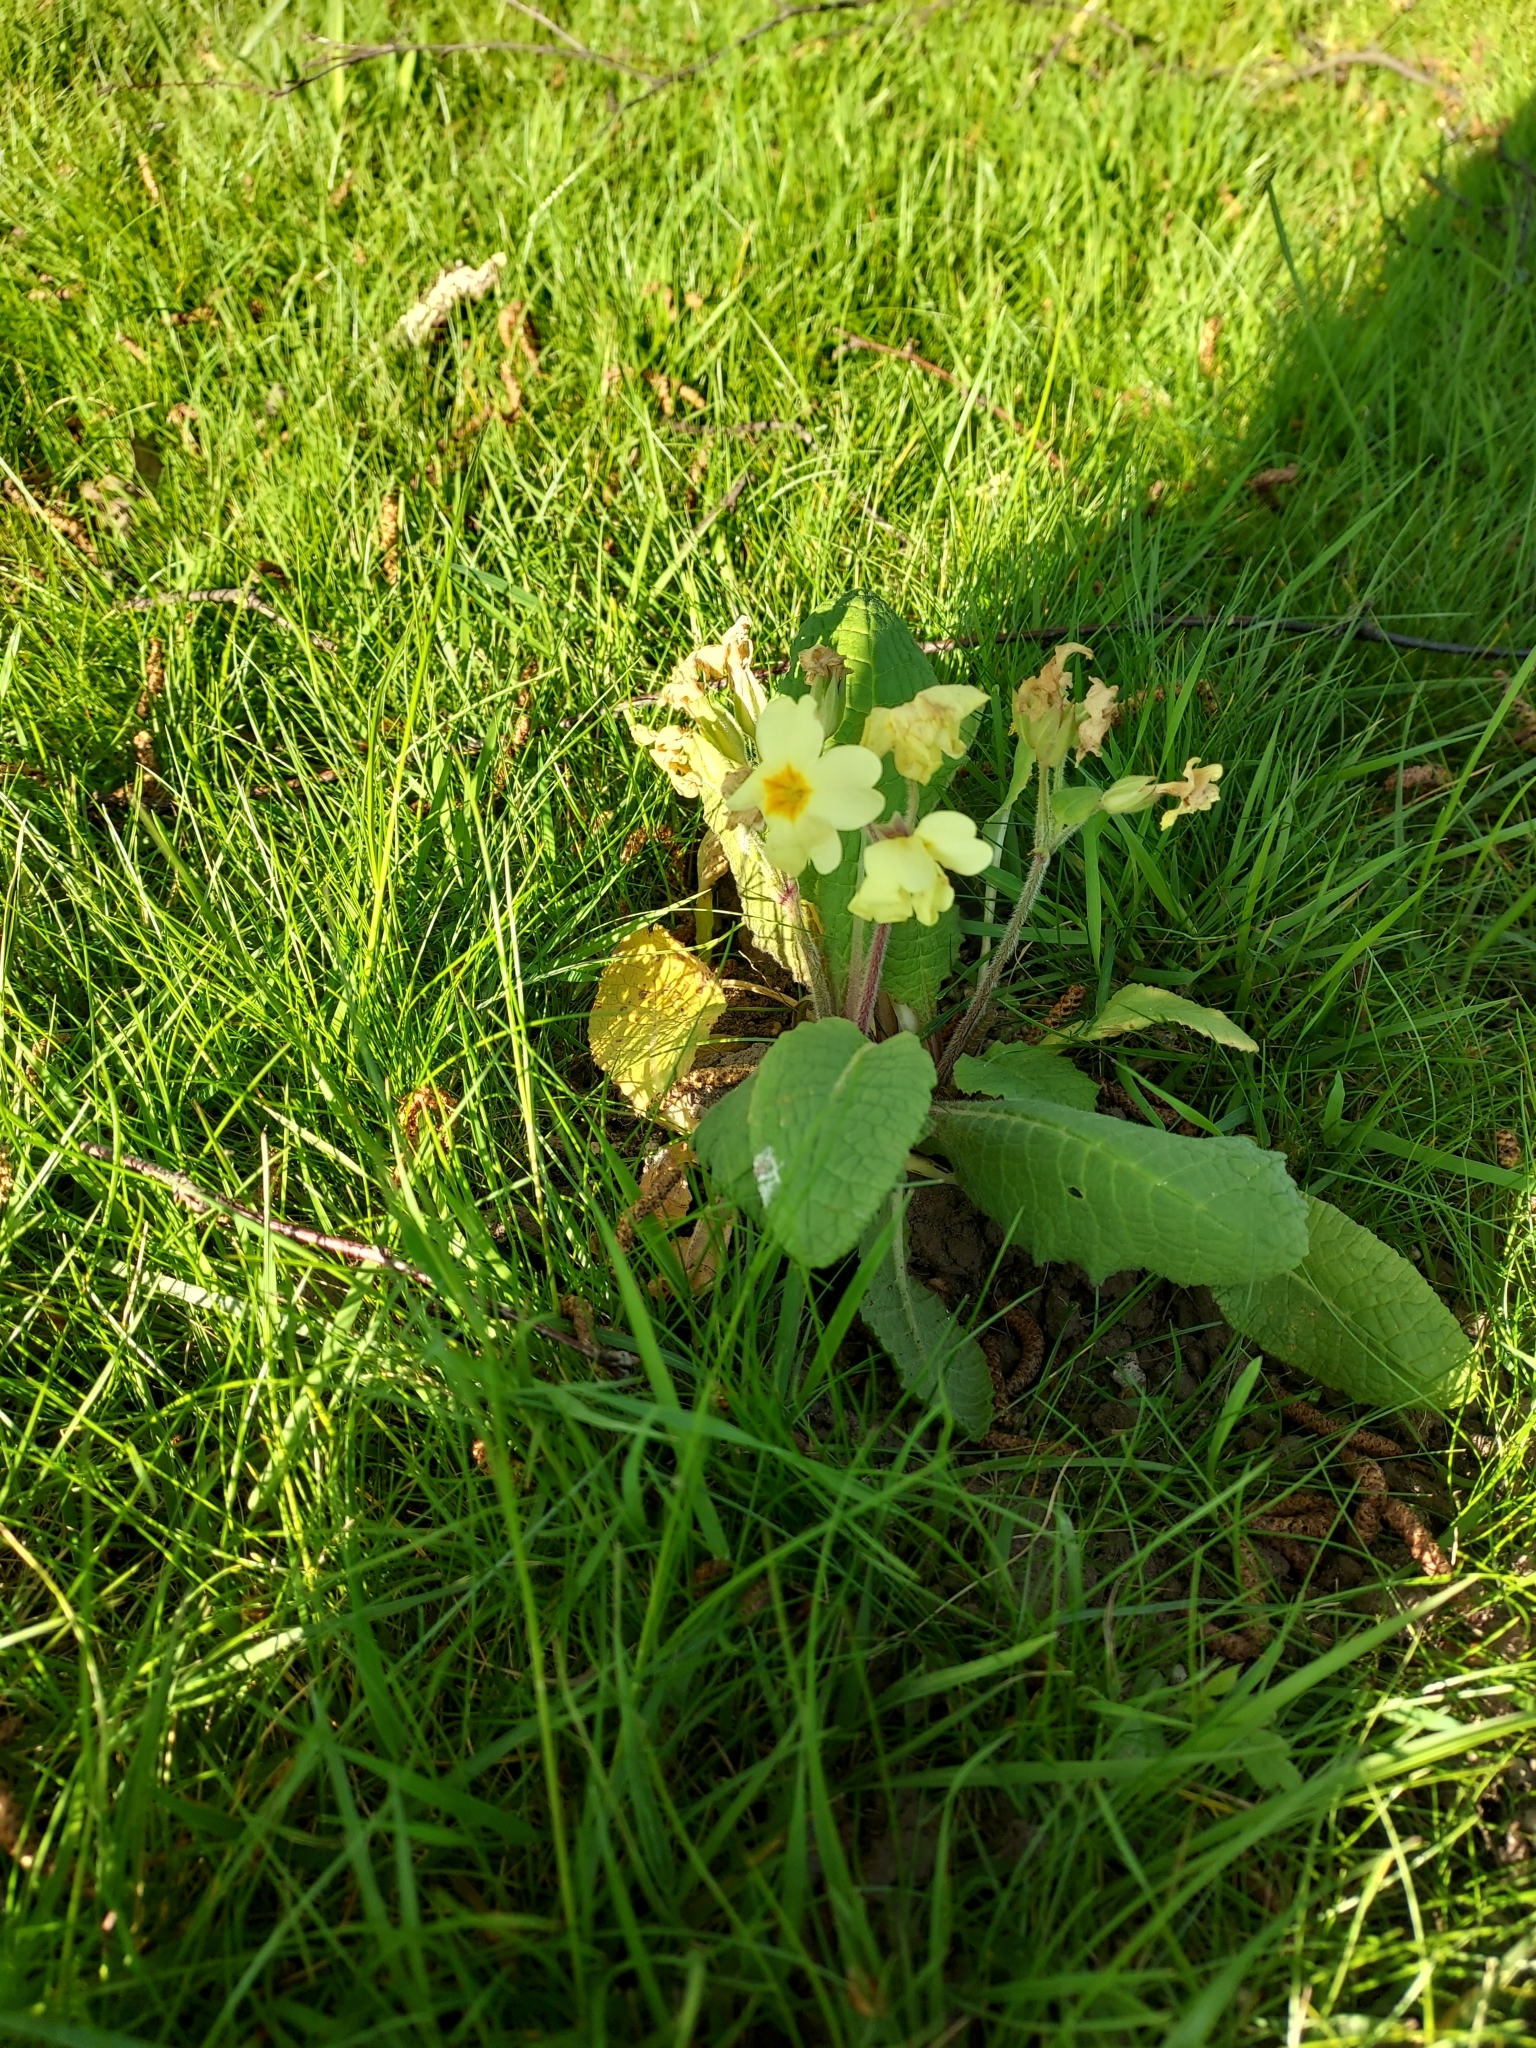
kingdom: Plantae
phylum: Tracheophyta
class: Magnoliopsida
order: Ericales
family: Primulaceae
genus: Primula
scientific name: Primula vulgaris
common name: Primrose
